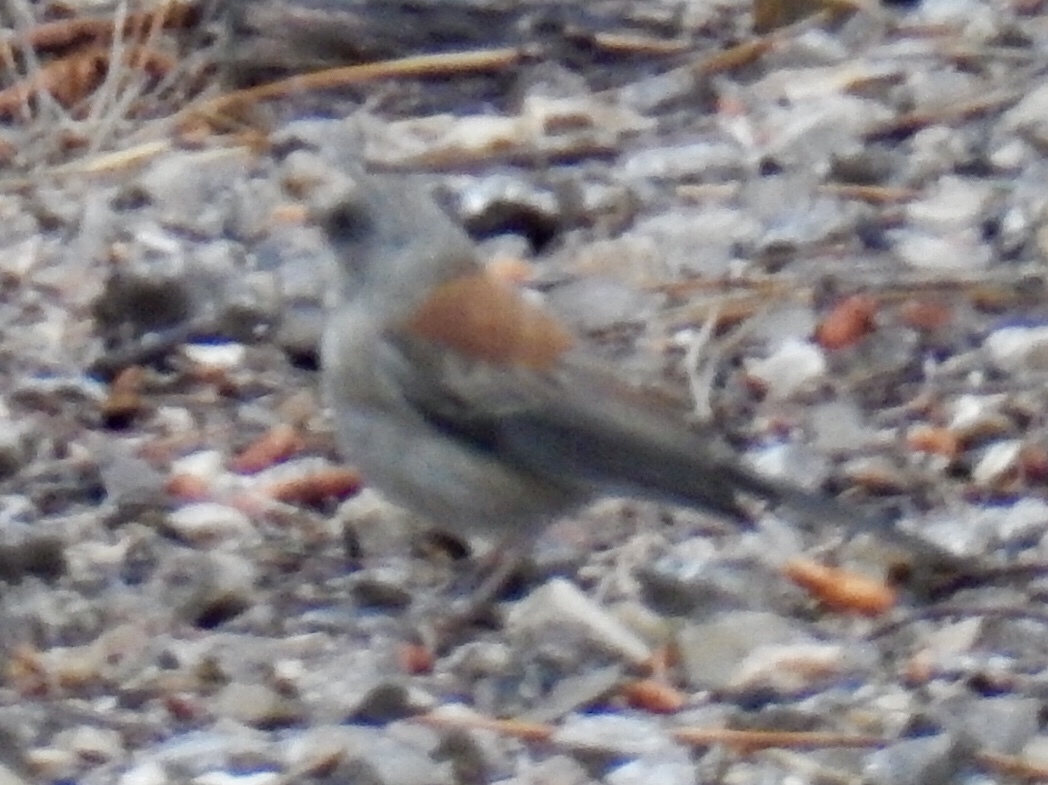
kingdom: Animalia
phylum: Chordata
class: Aves
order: Passeriformes
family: Passerellidae
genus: Junco
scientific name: Junco hyemalis
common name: Dark-eyed junco
